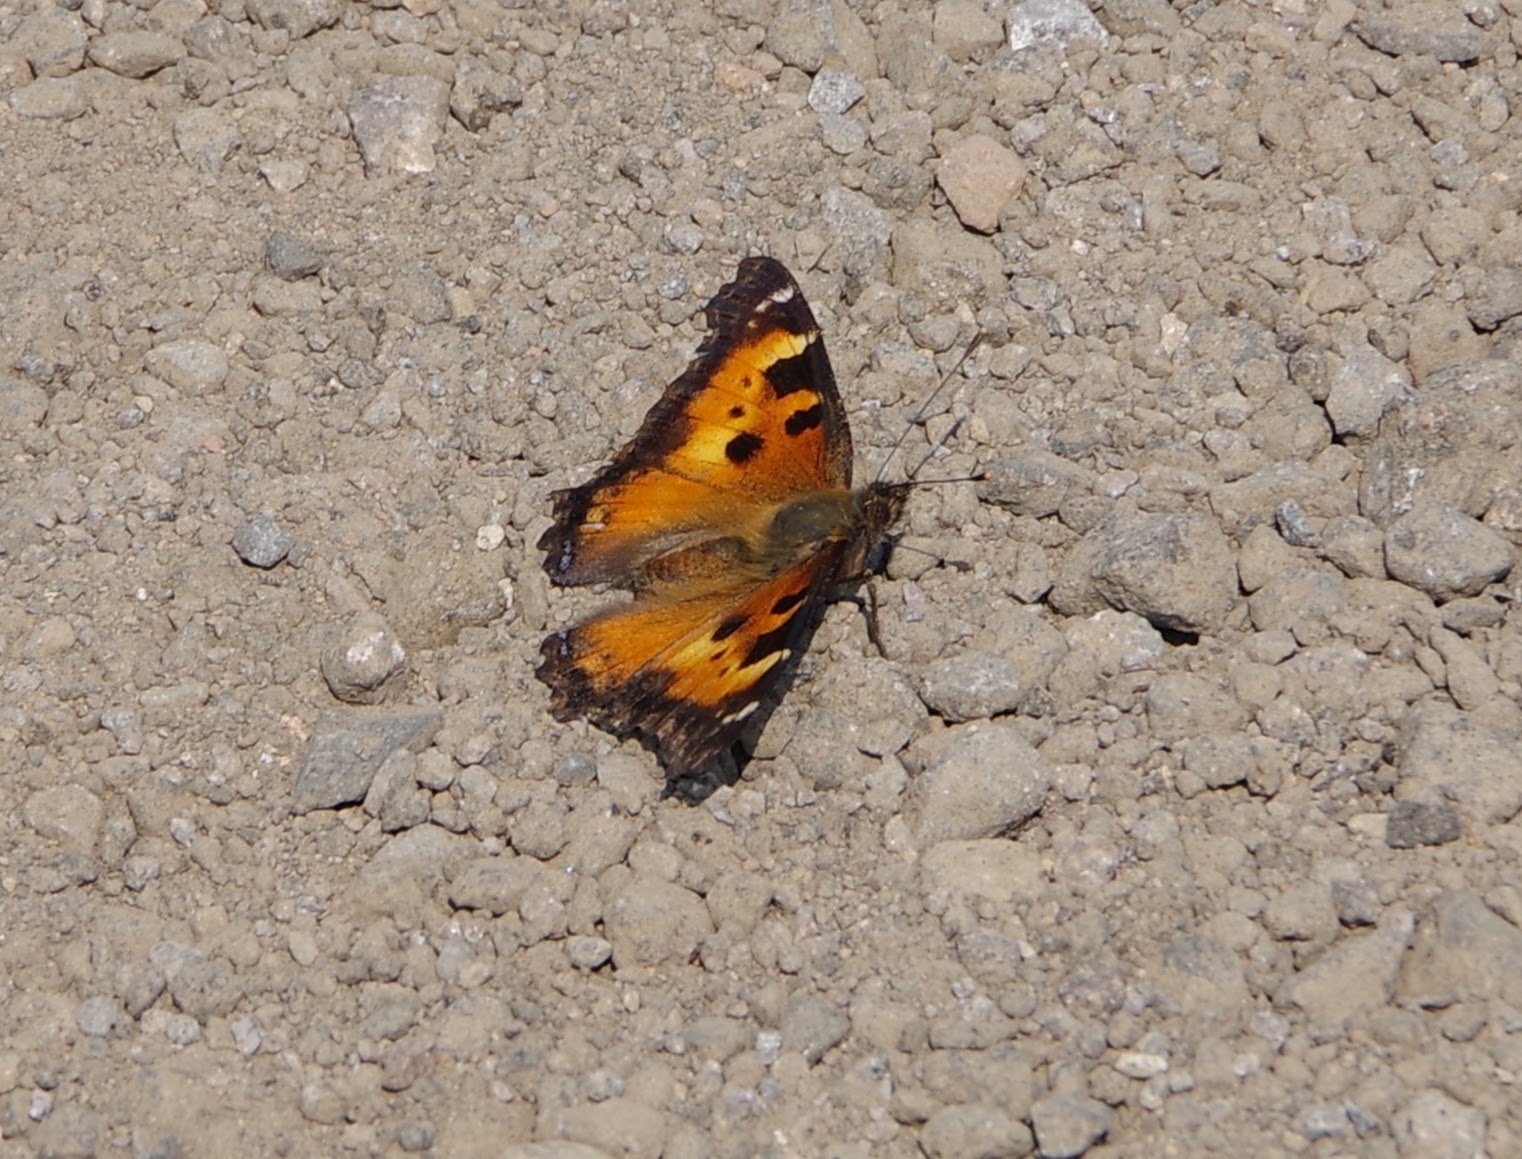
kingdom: Animalia
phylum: Arthropoda
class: Insecta
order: Lepidoptera
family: Nymphalidae
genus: Nymphalis
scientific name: Nymphalis californica
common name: California tortoiseshell
